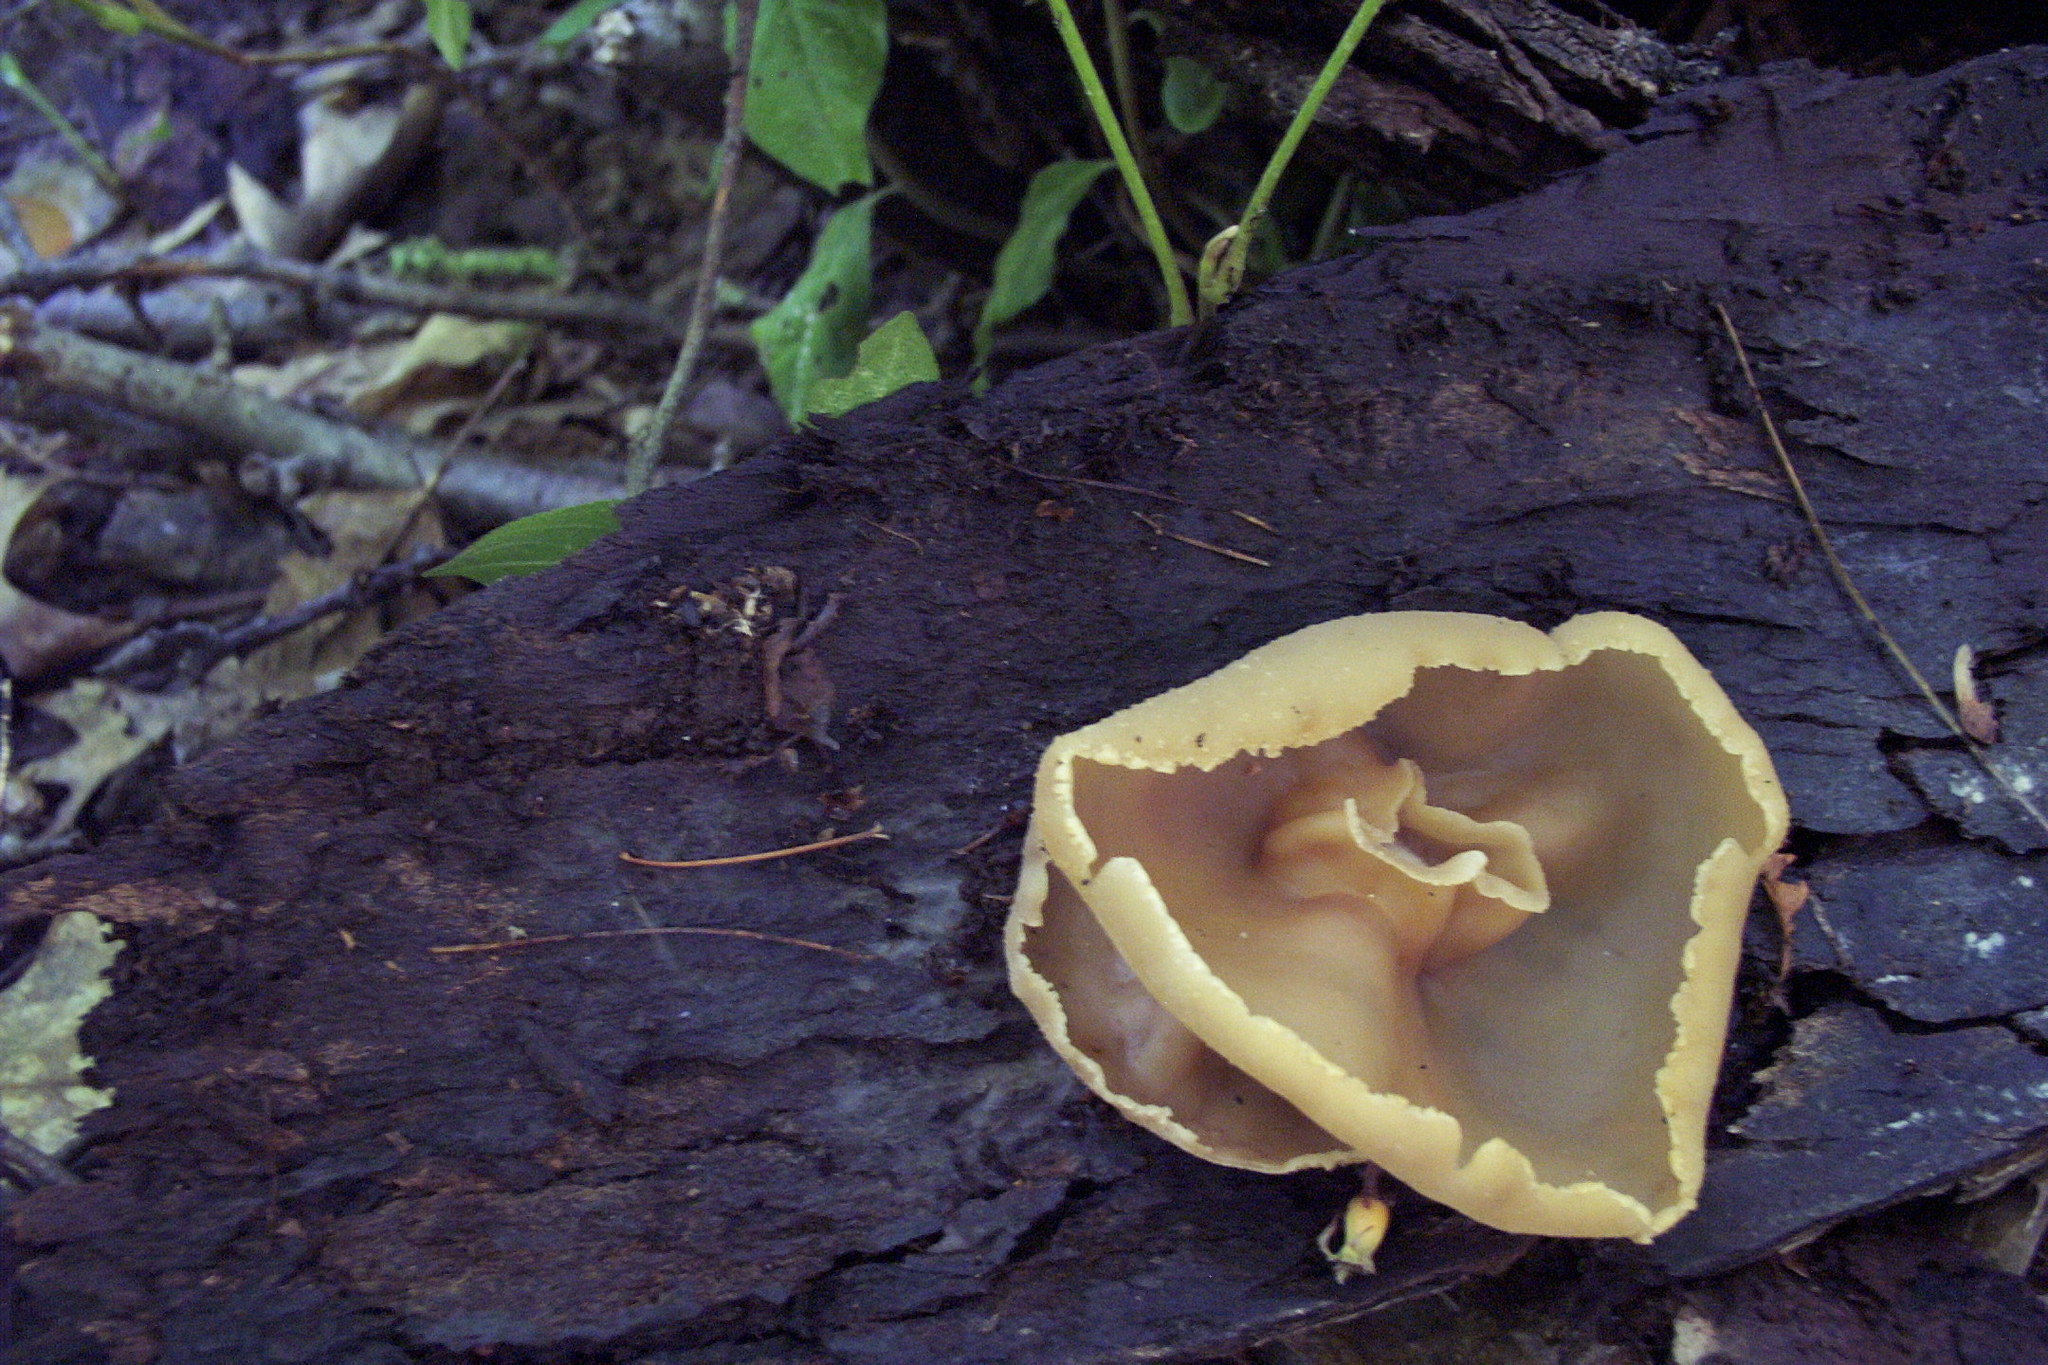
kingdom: Fungi
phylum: Ascomycota
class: Pezizomycetes
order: Pezizales
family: Pezizaceae
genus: Peziza
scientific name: Peziza varia
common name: Layered cup
